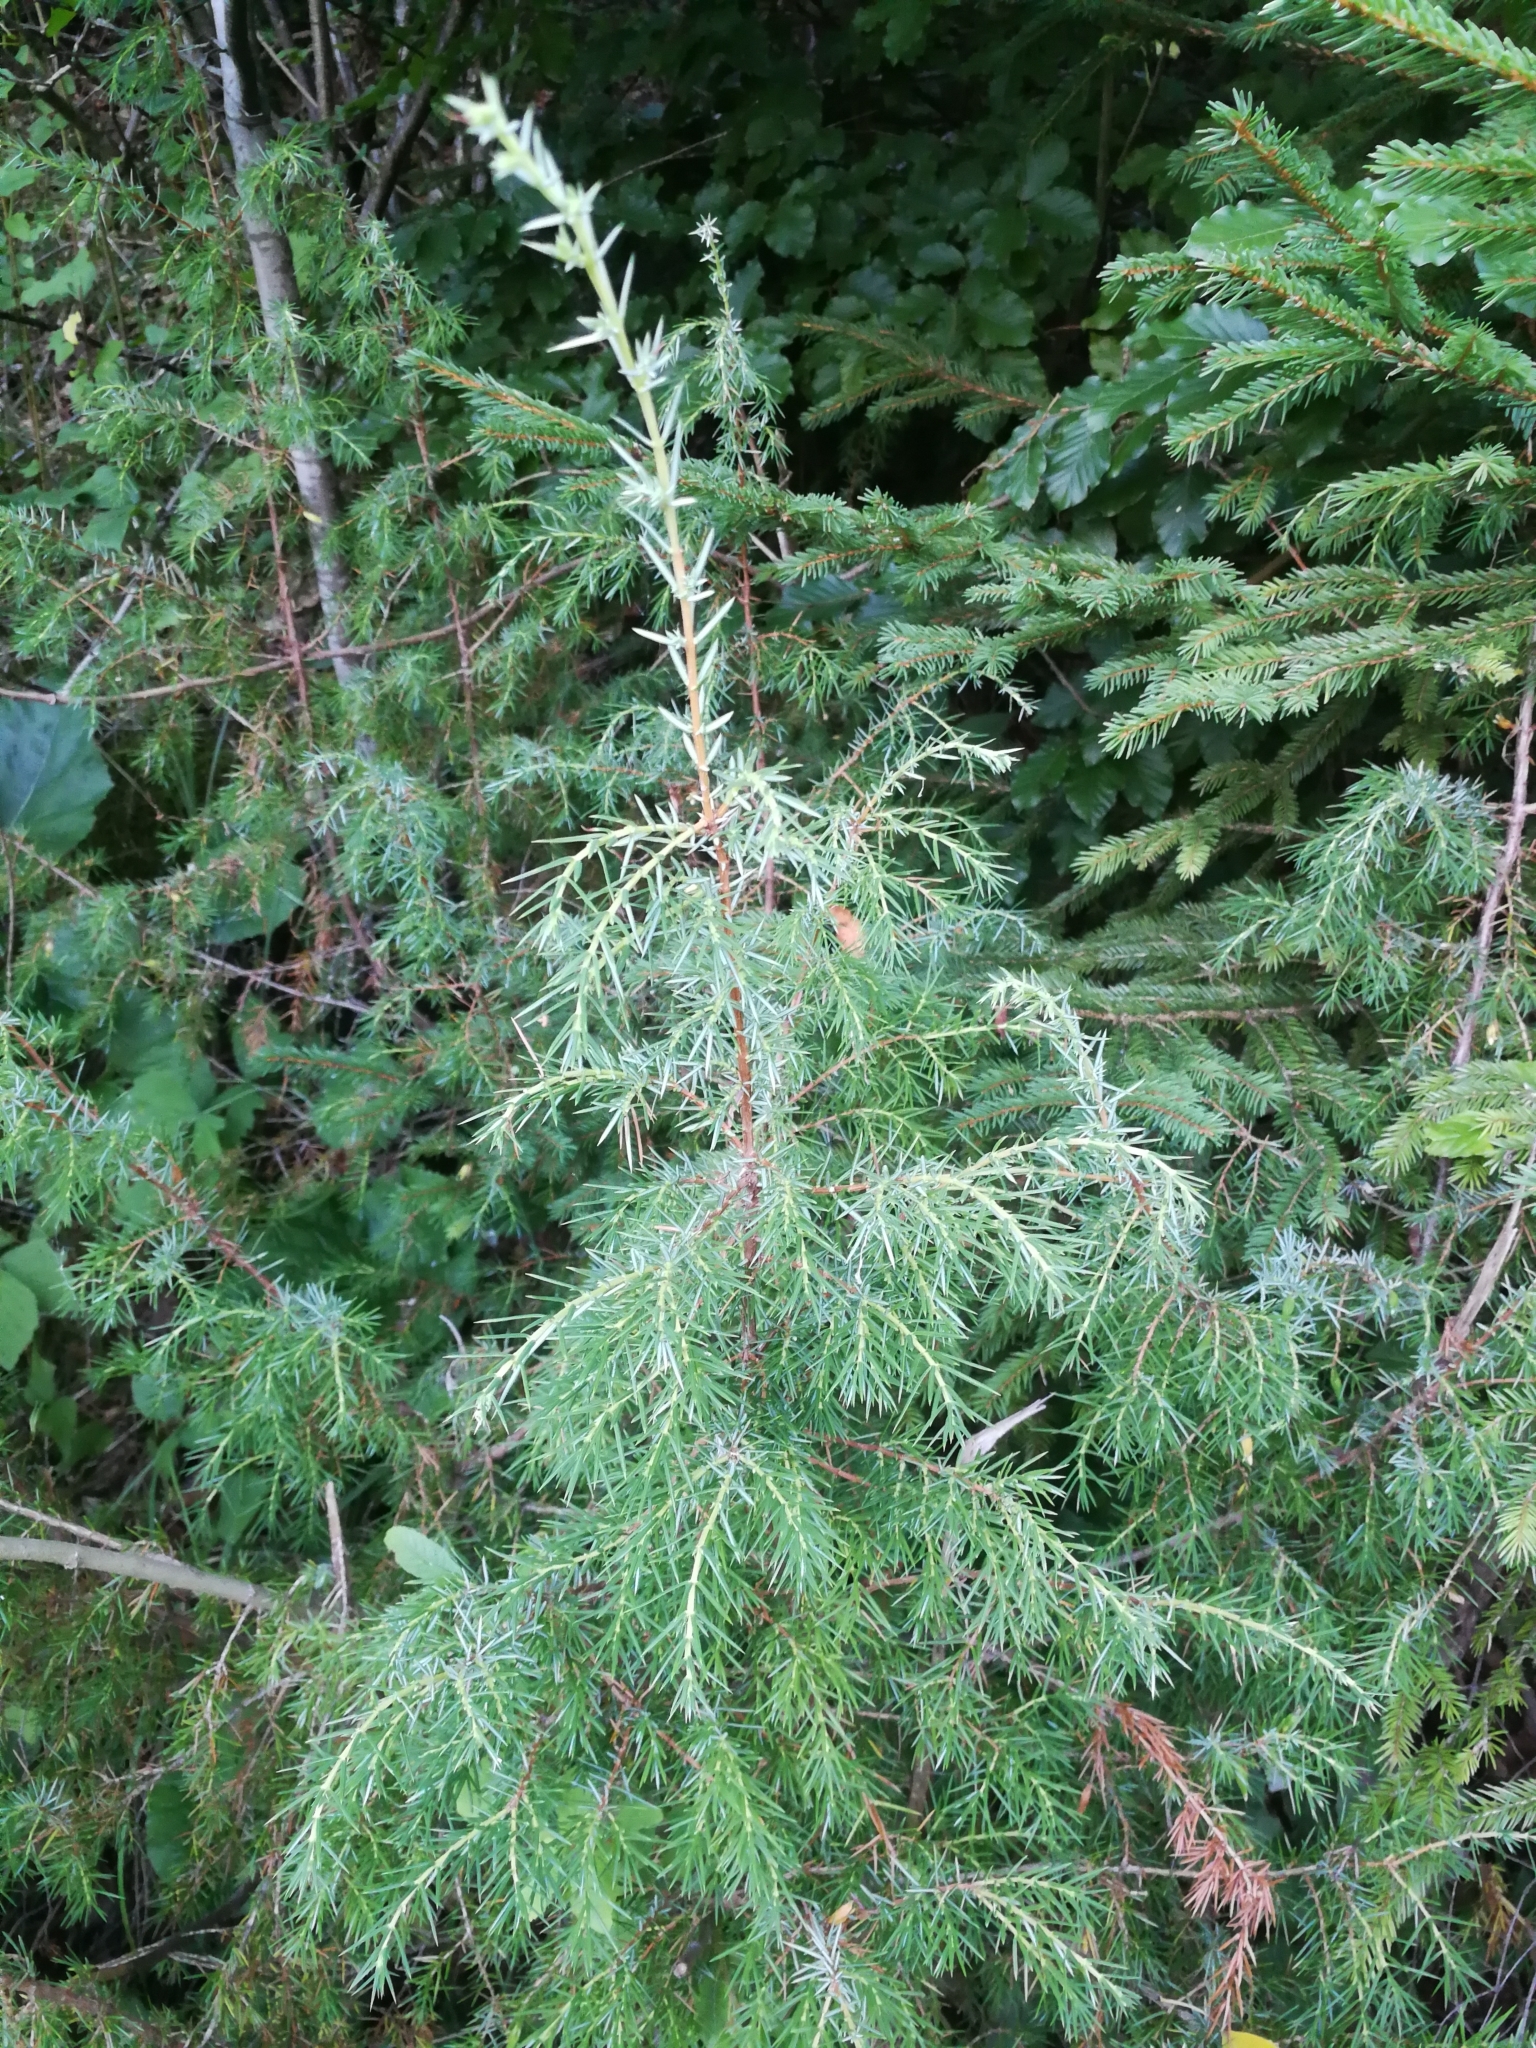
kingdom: Plantae
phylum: Tracheophyta
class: Pinopsida
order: Pinales
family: Cupressaceae
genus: Juniperus
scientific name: Juniperus communis
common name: Common juniper
